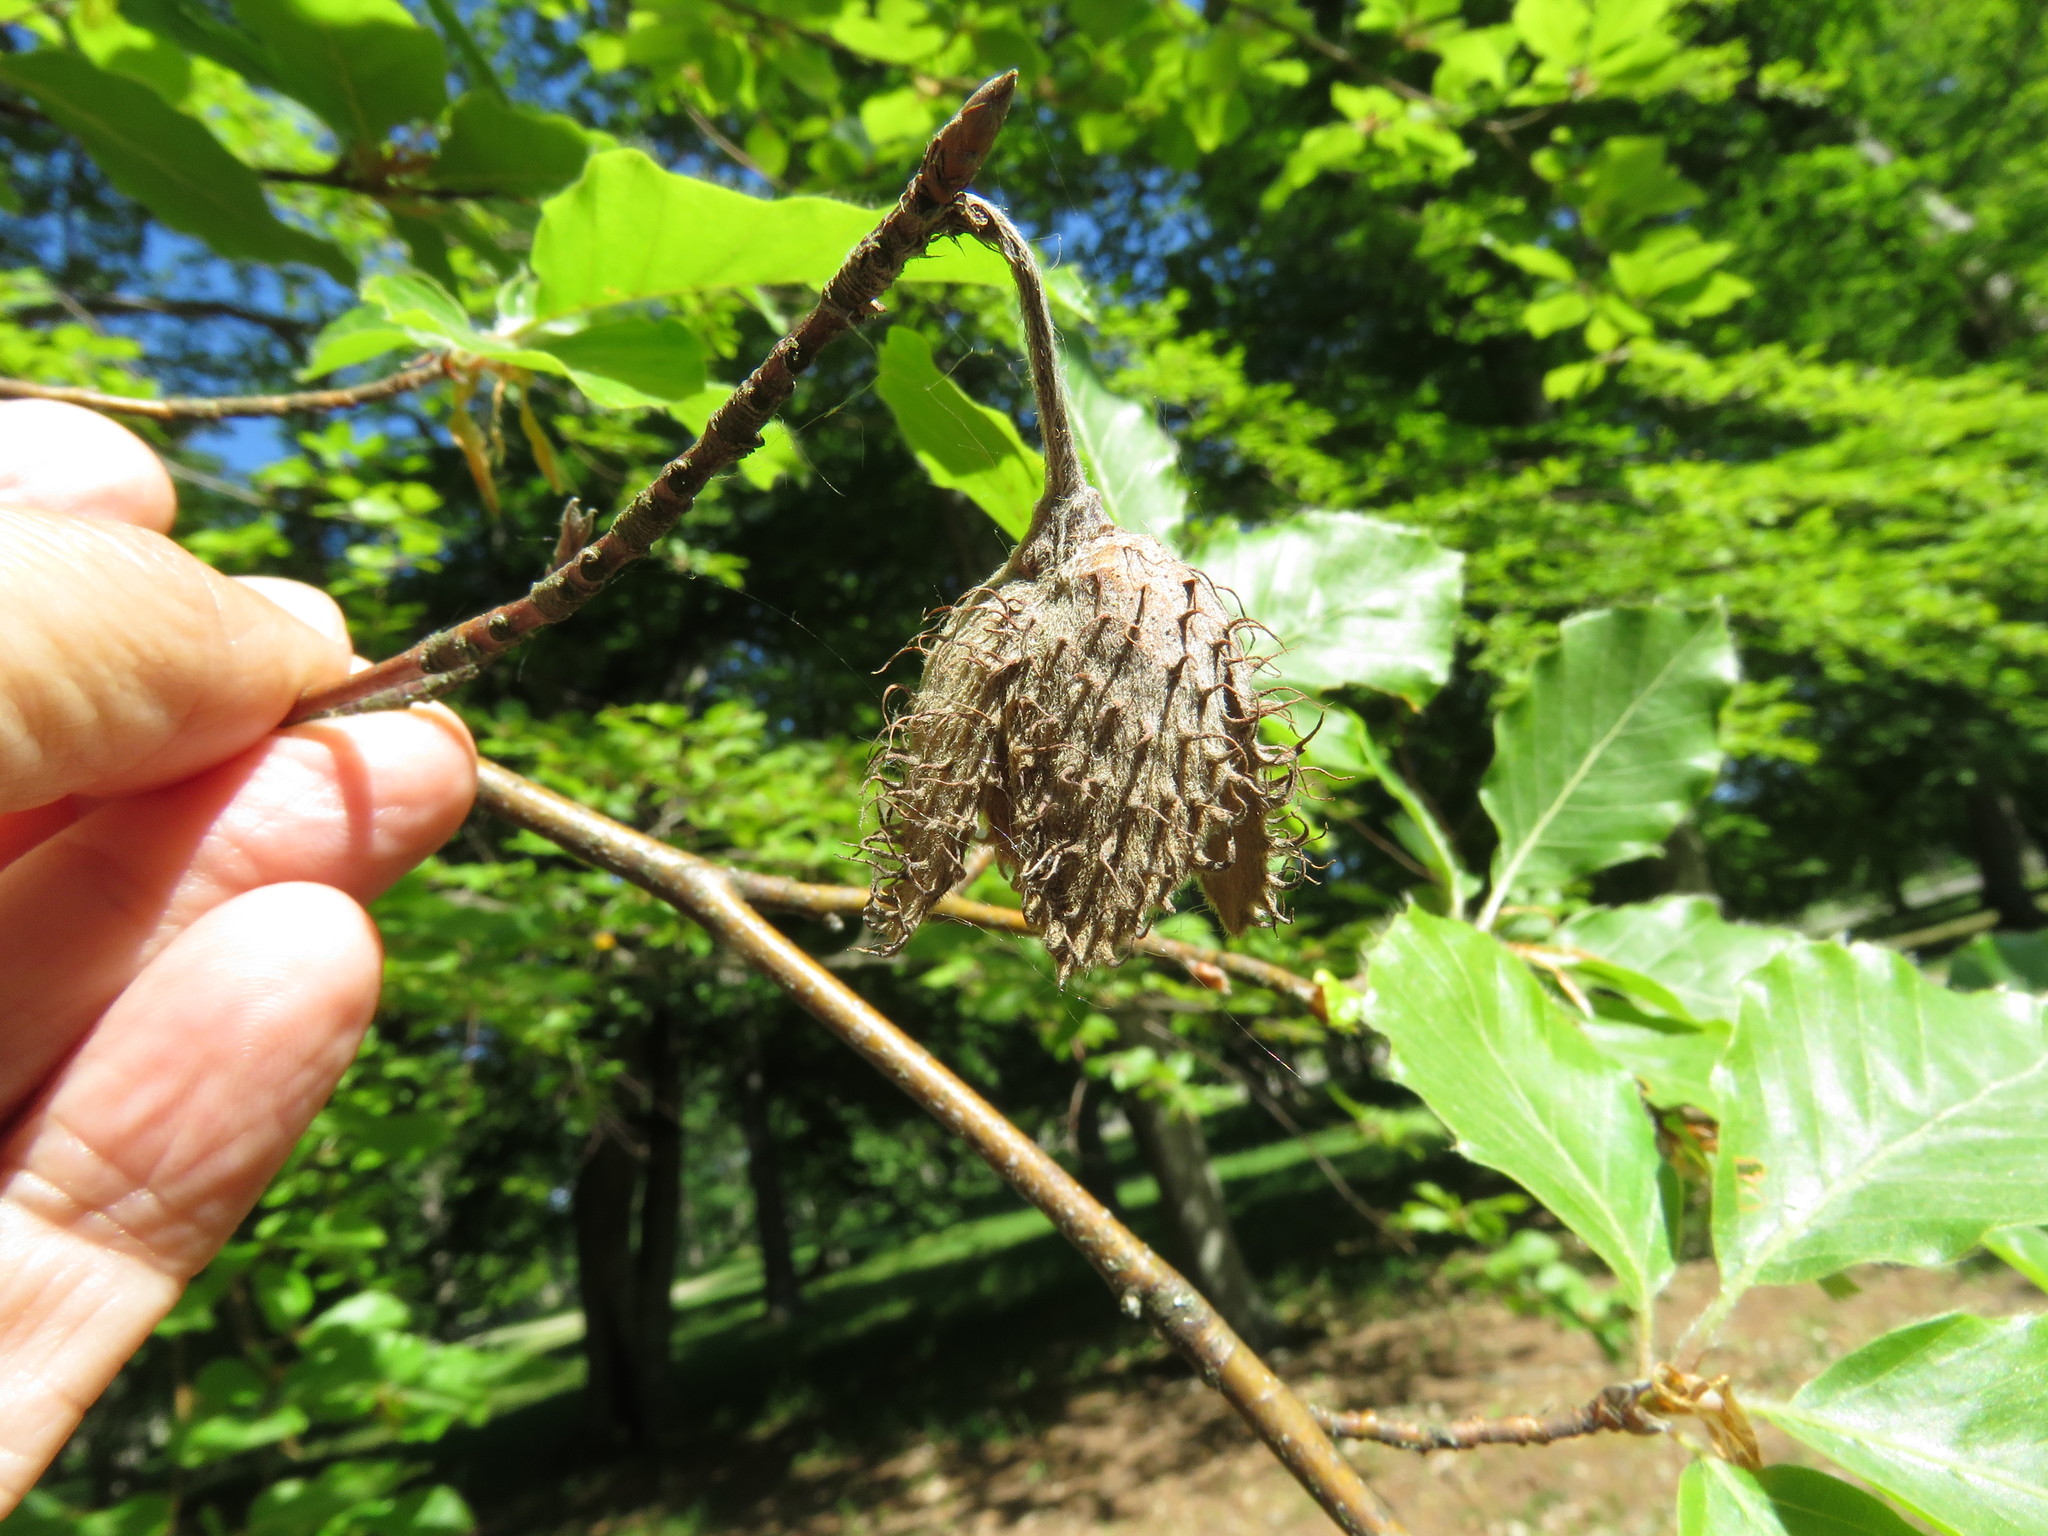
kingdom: Plantae
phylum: Tracheophyta
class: Magnoliopsida
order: Fagales
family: Fagaceae
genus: Fagus
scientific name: Fagus sylvatica
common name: Beech
